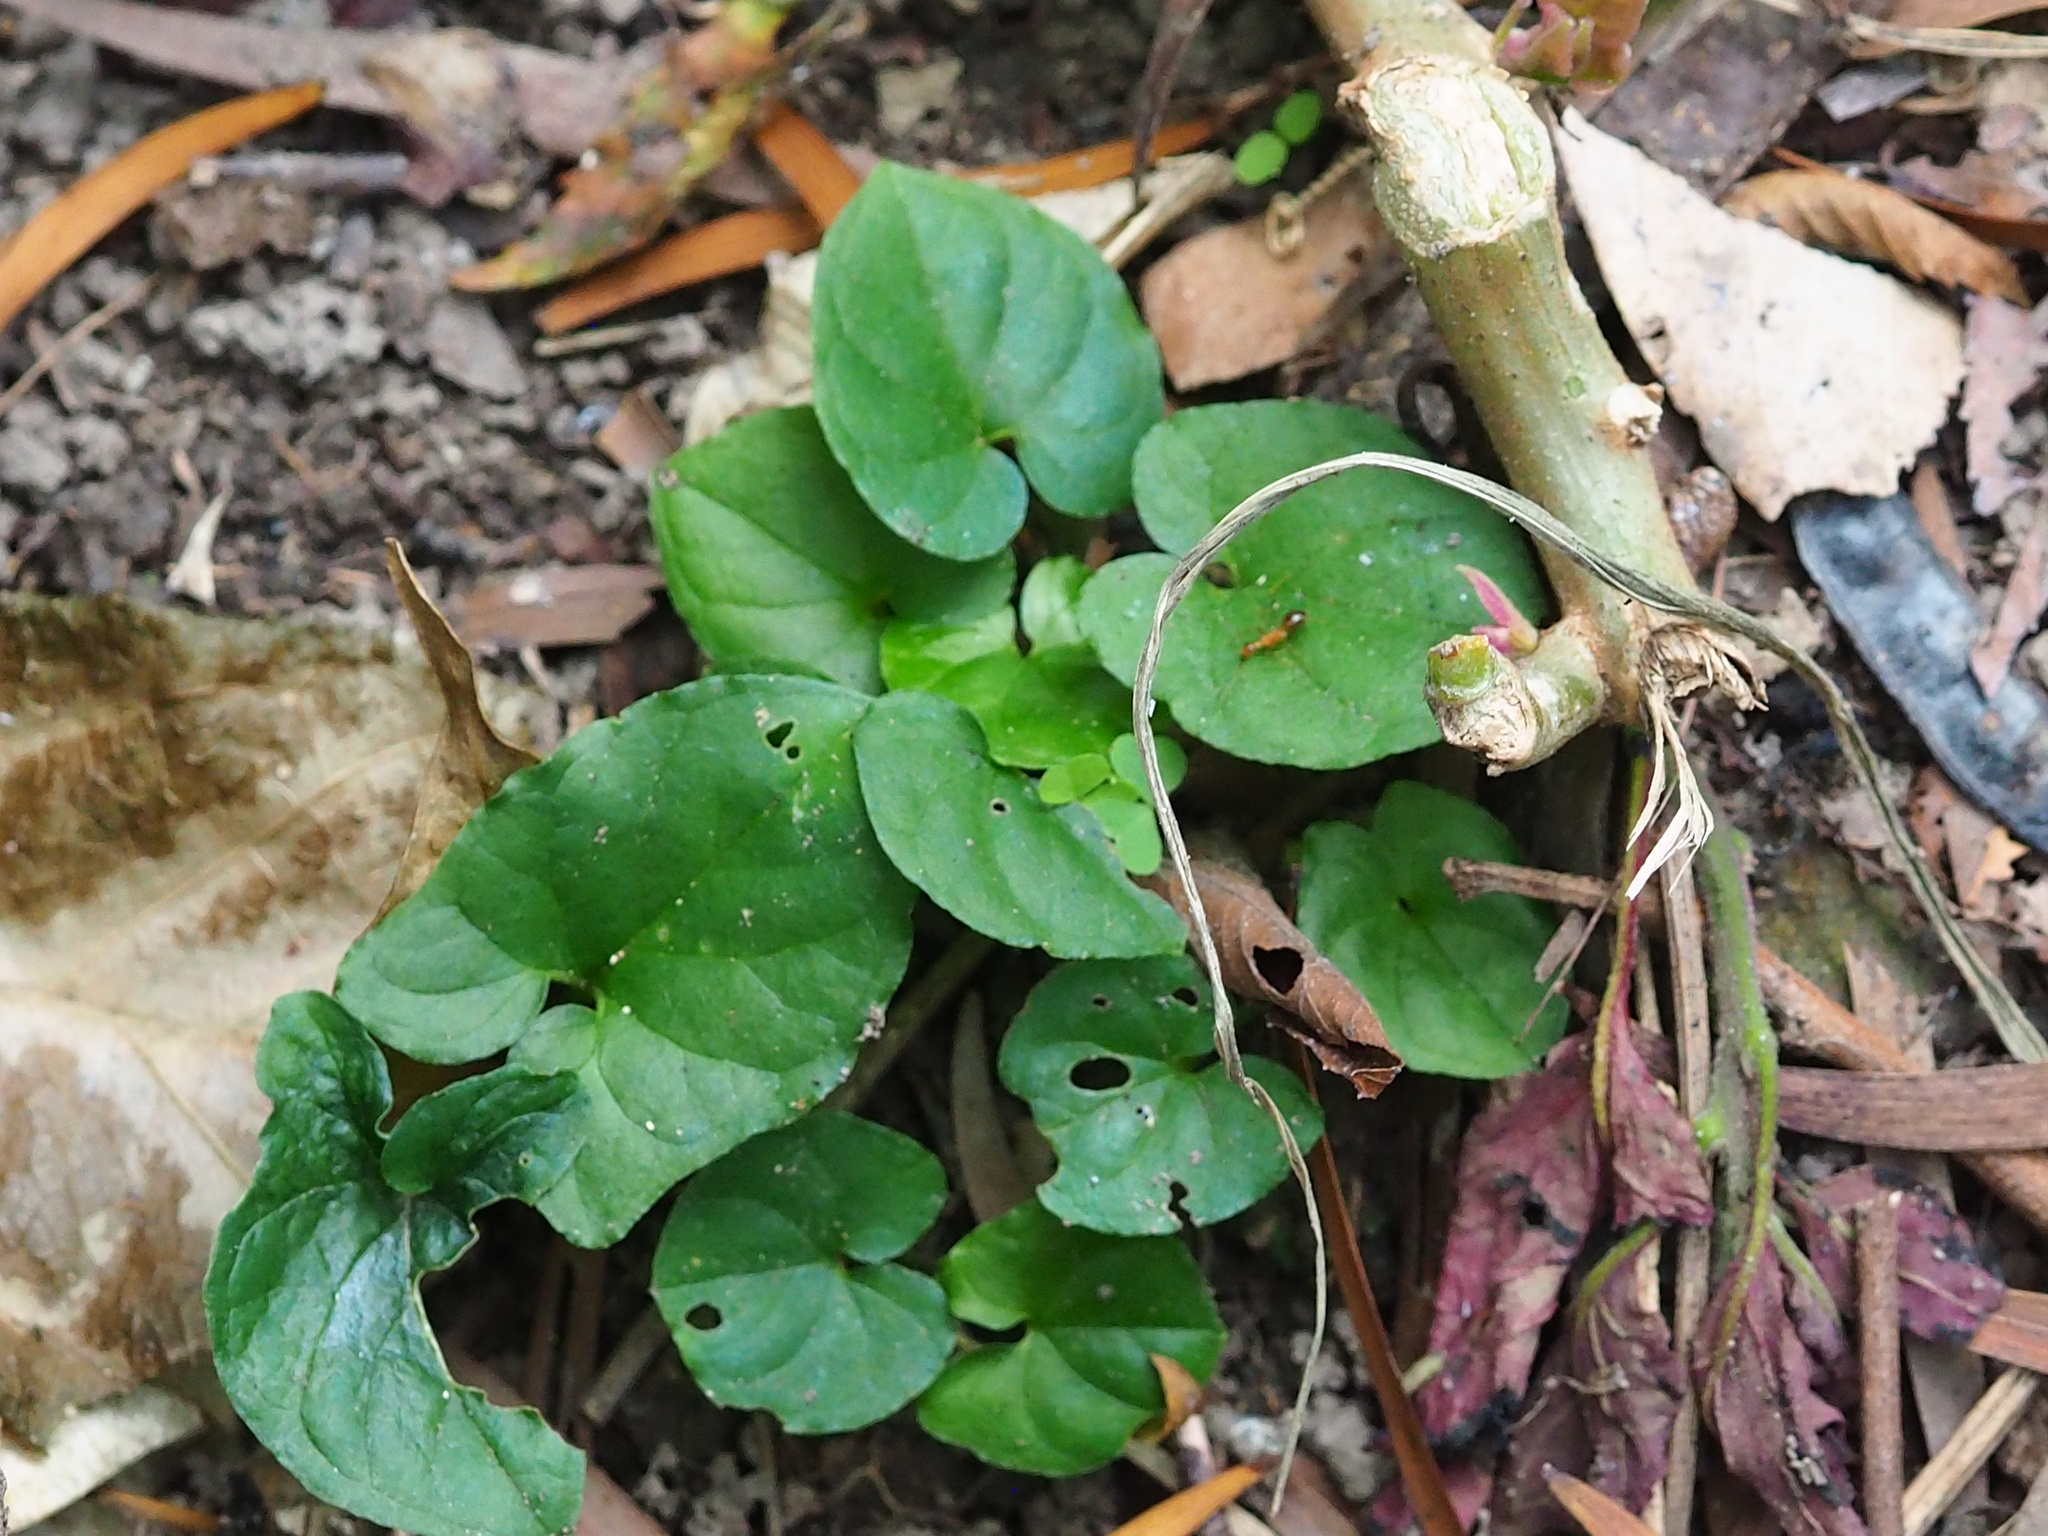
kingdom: Plantae
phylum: Tracheophyta
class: Liliopsida
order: Alismatales
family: Araceae
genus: Typhonium
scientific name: Typhonium blumei
